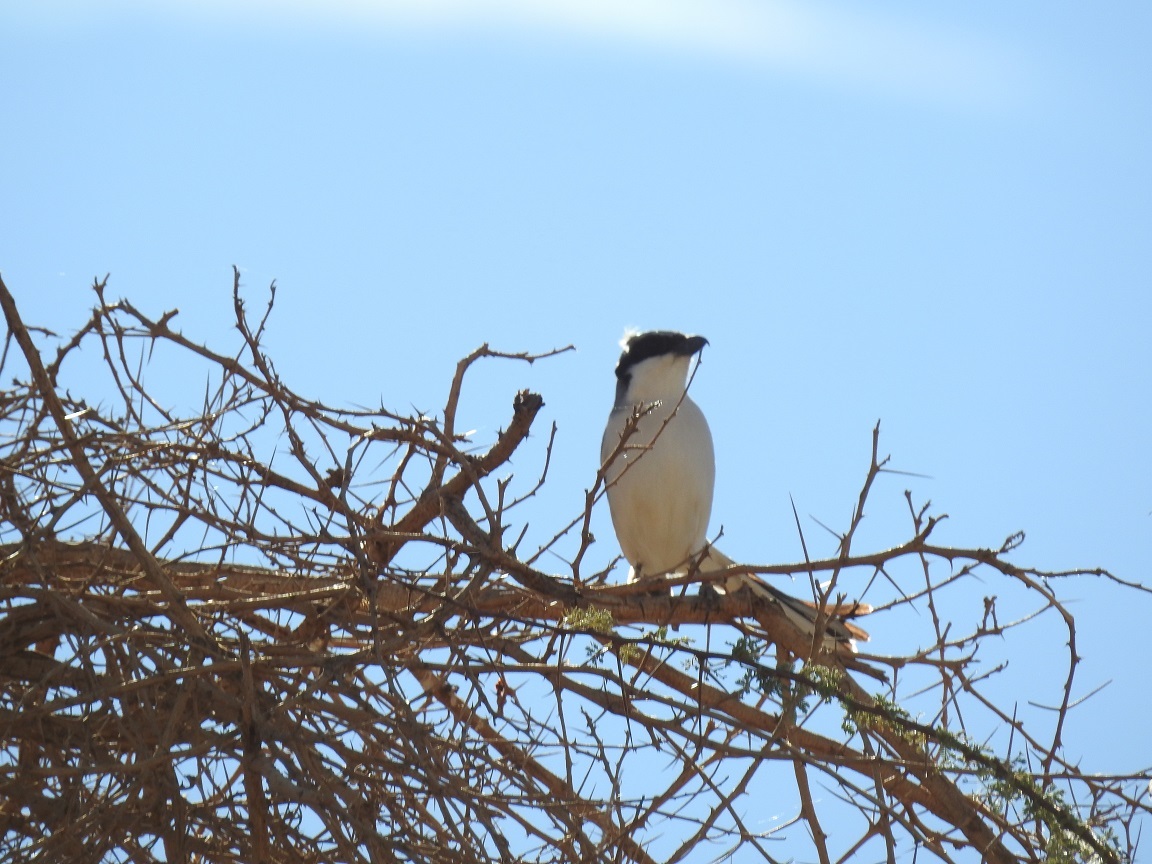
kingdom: Animalia
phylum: Chordata
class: Aves
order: Passeriformes
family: Laniidae
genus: Lanius
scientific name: Lanius excubitor
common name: Great grey shrike
